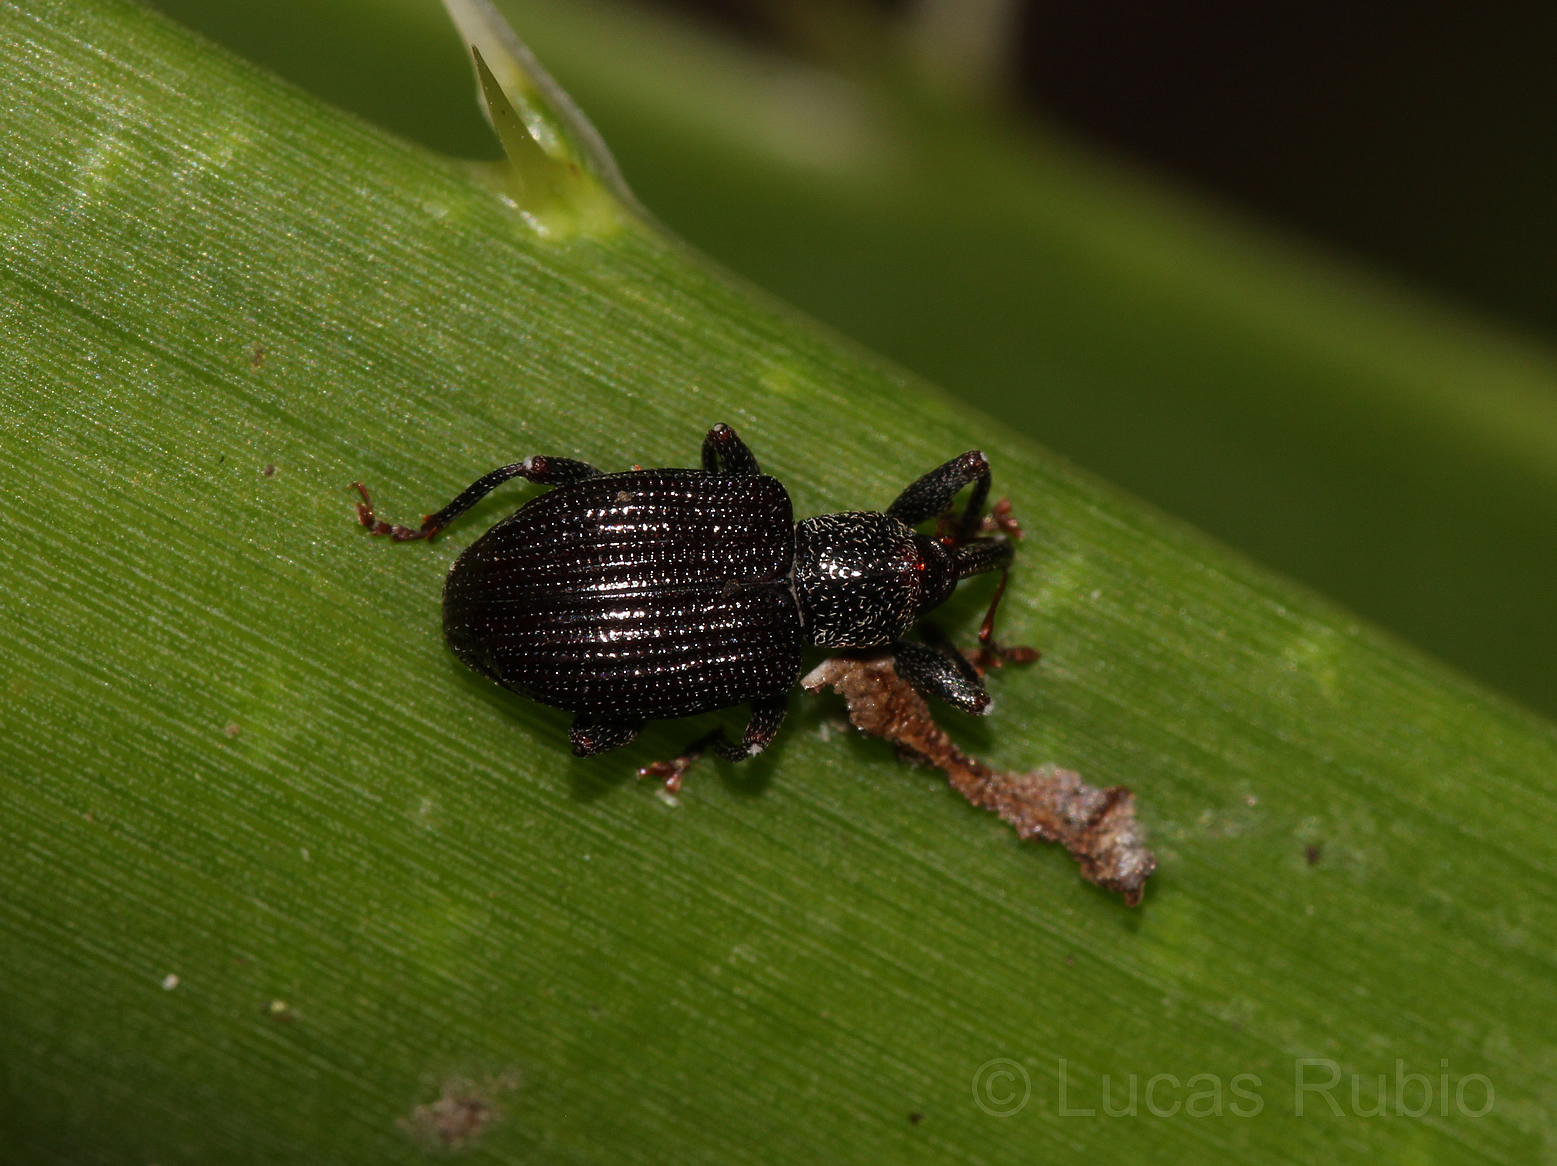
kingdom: Animalia
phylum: Arthropoda
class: Insecta
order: Coleoptera
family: Curculionidae
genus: Conotrachelus
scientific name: Conotrachelus striatus
